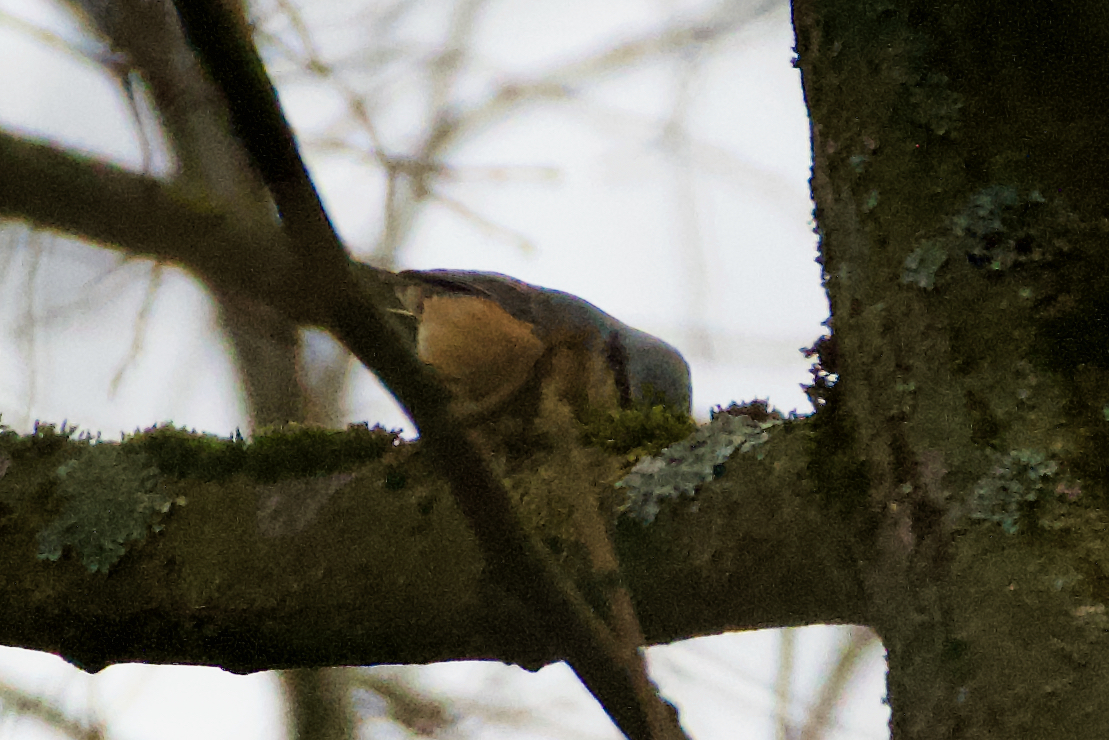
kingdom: Animalia
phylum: Chordata
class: Aves
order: Passeriformes
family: Sittidae
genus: Sitta
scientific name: Sitta europaea
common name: Eurasian nuthatch
